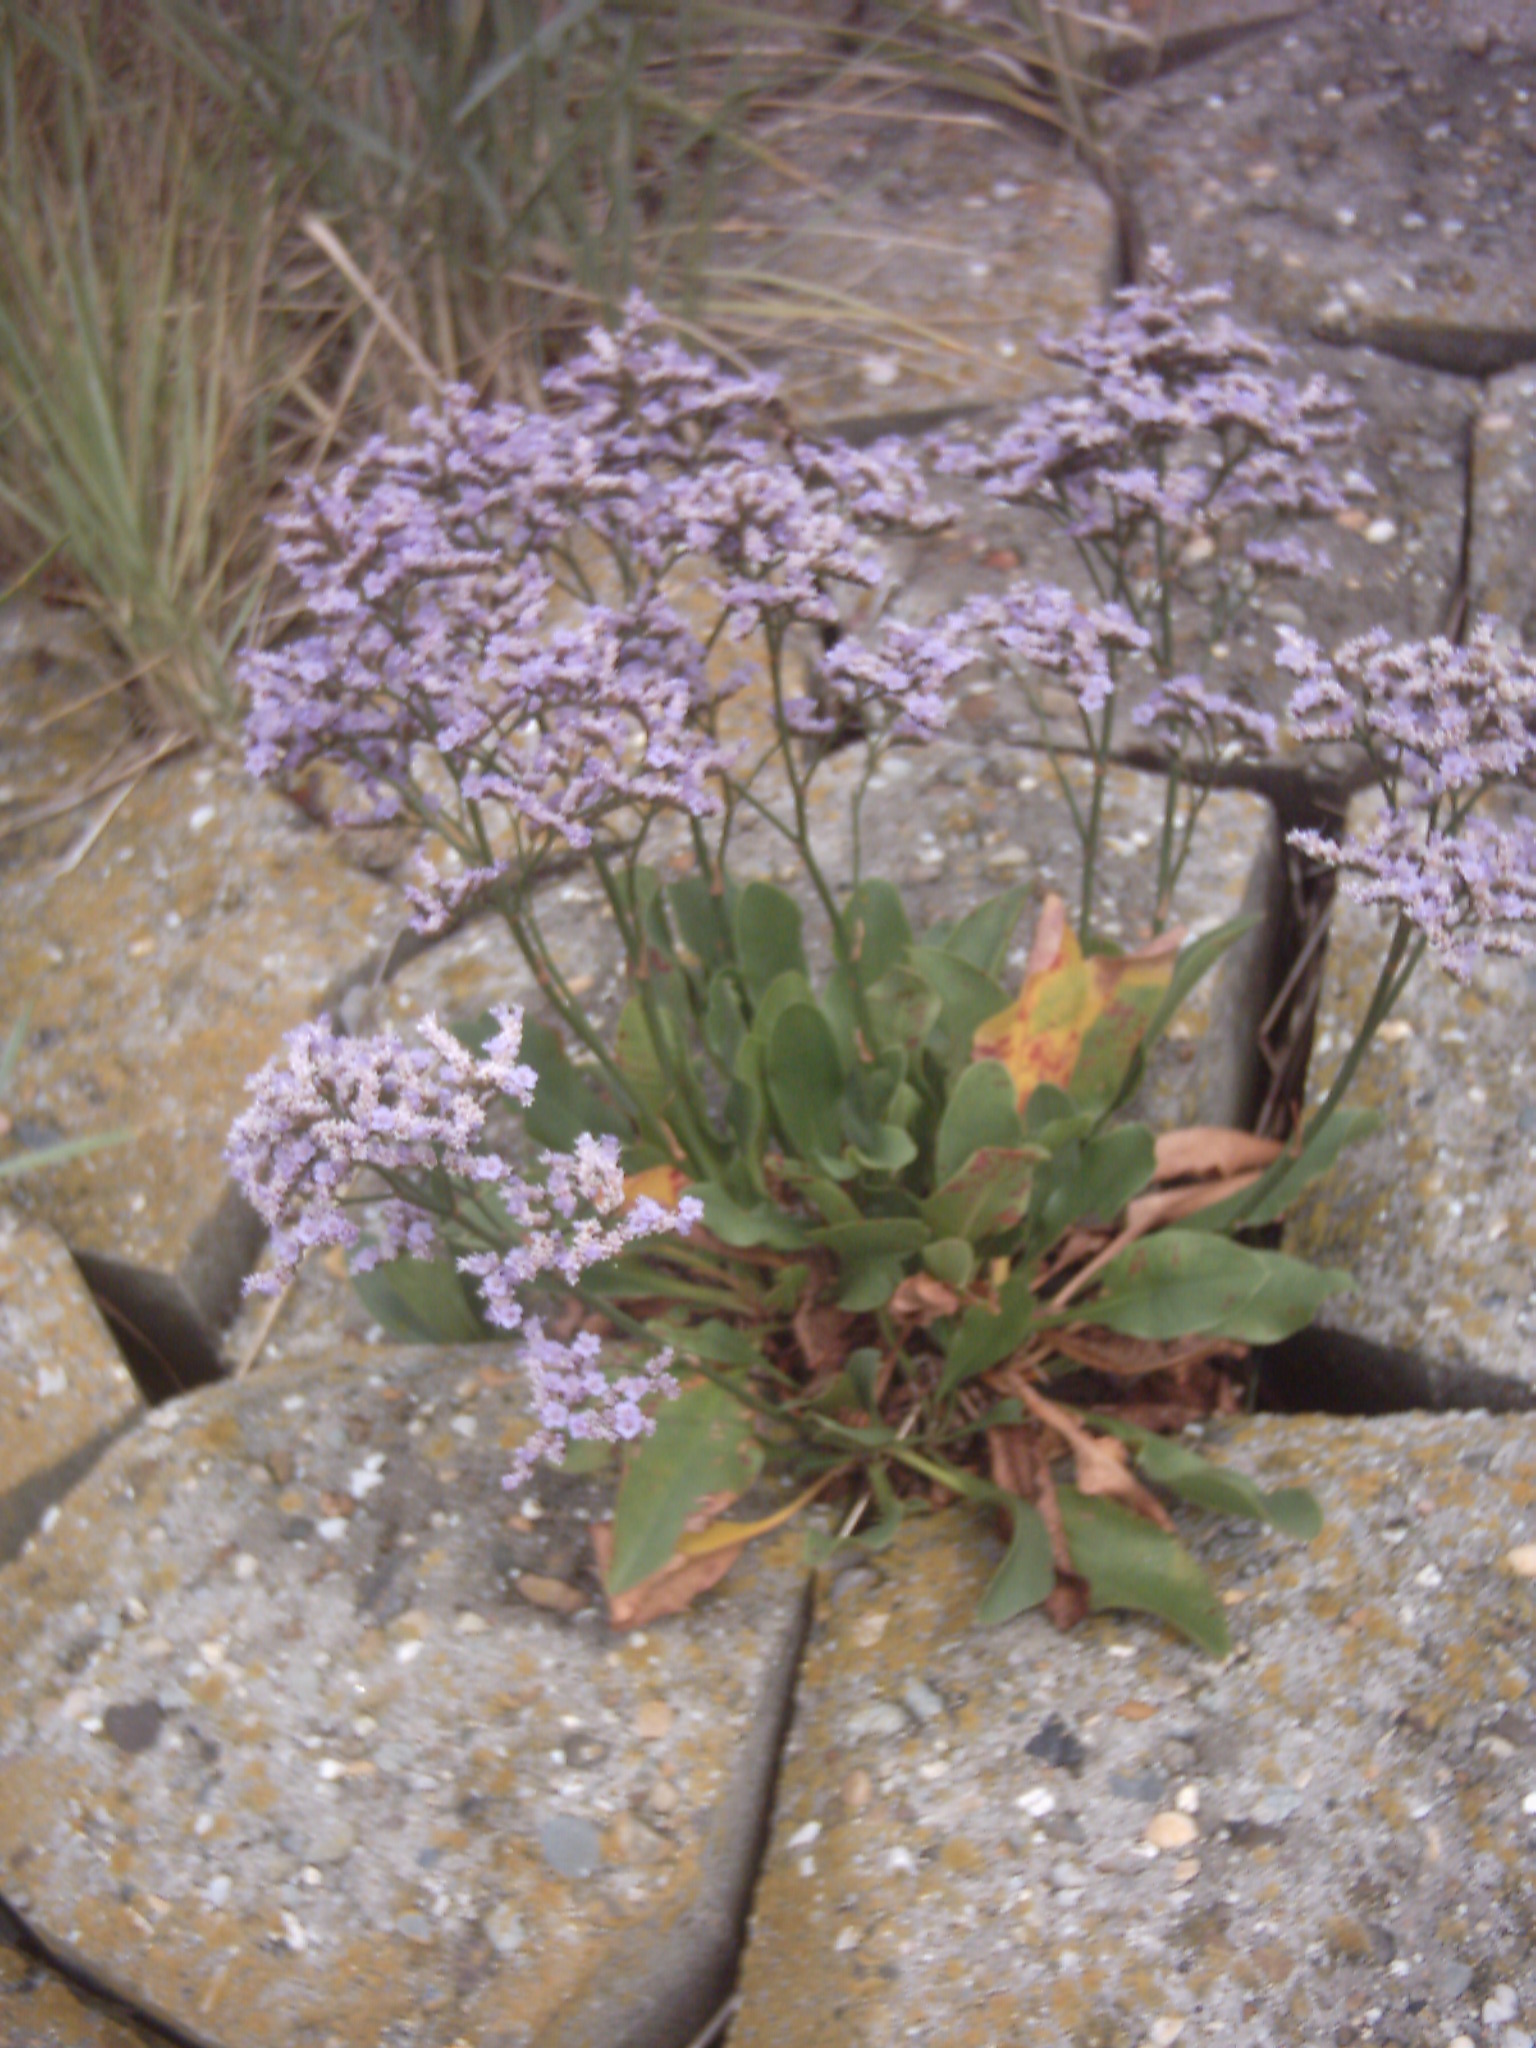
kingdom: Plantae
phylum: Tracheophyta
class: Magnoliopsida
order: Caryophyllales
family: Plumbaginaceae
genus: Limonium
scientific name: Limonium vulgare
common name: Common sea-lavender
